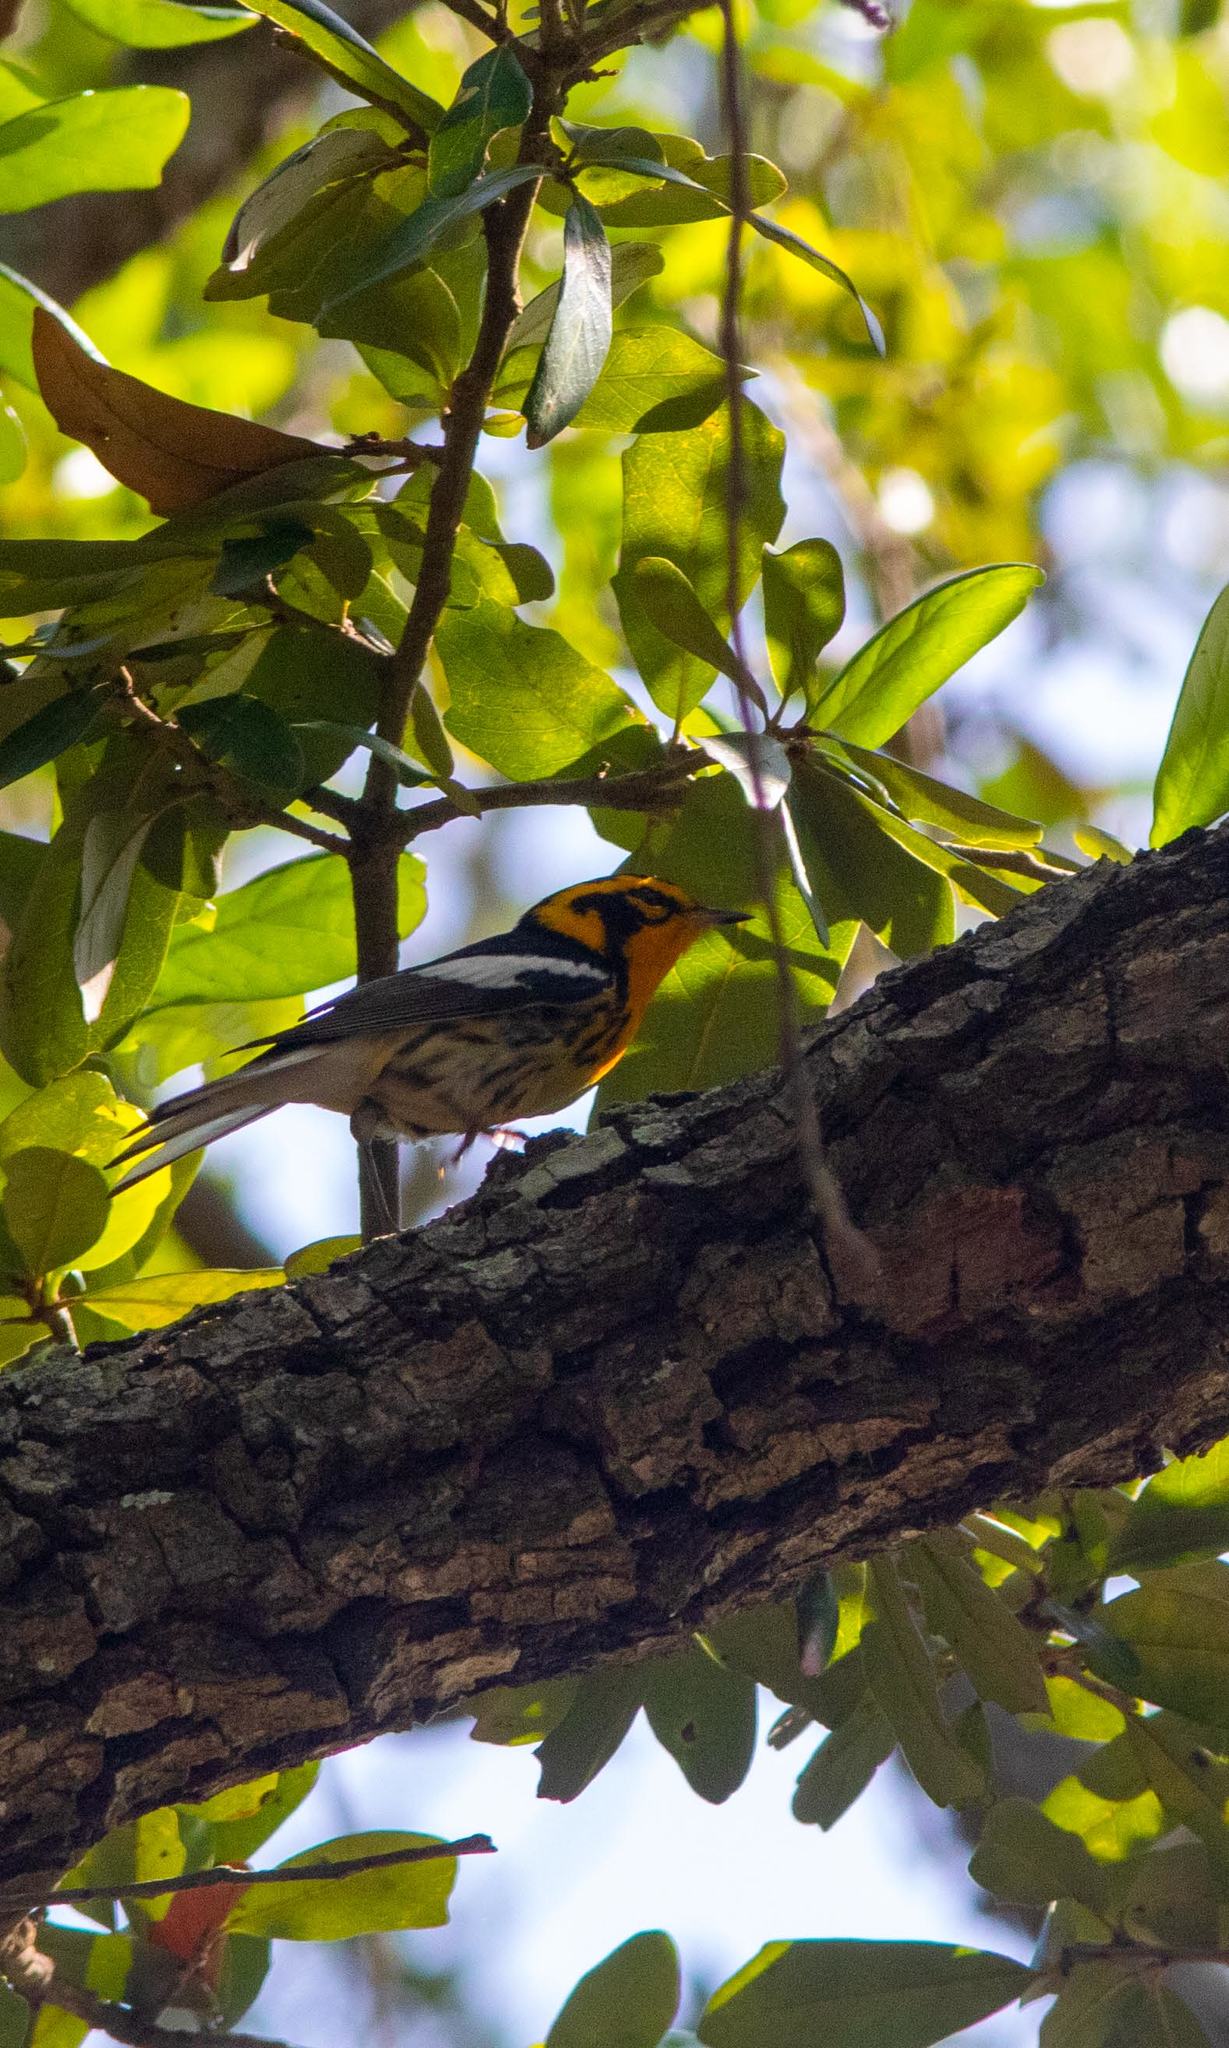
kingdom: Animalia
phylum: Chordata
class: Aves
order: Passeriformes
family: Parulidae
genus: Setophaga
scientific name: Setophaga fusca
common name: Blackburnian warbler
